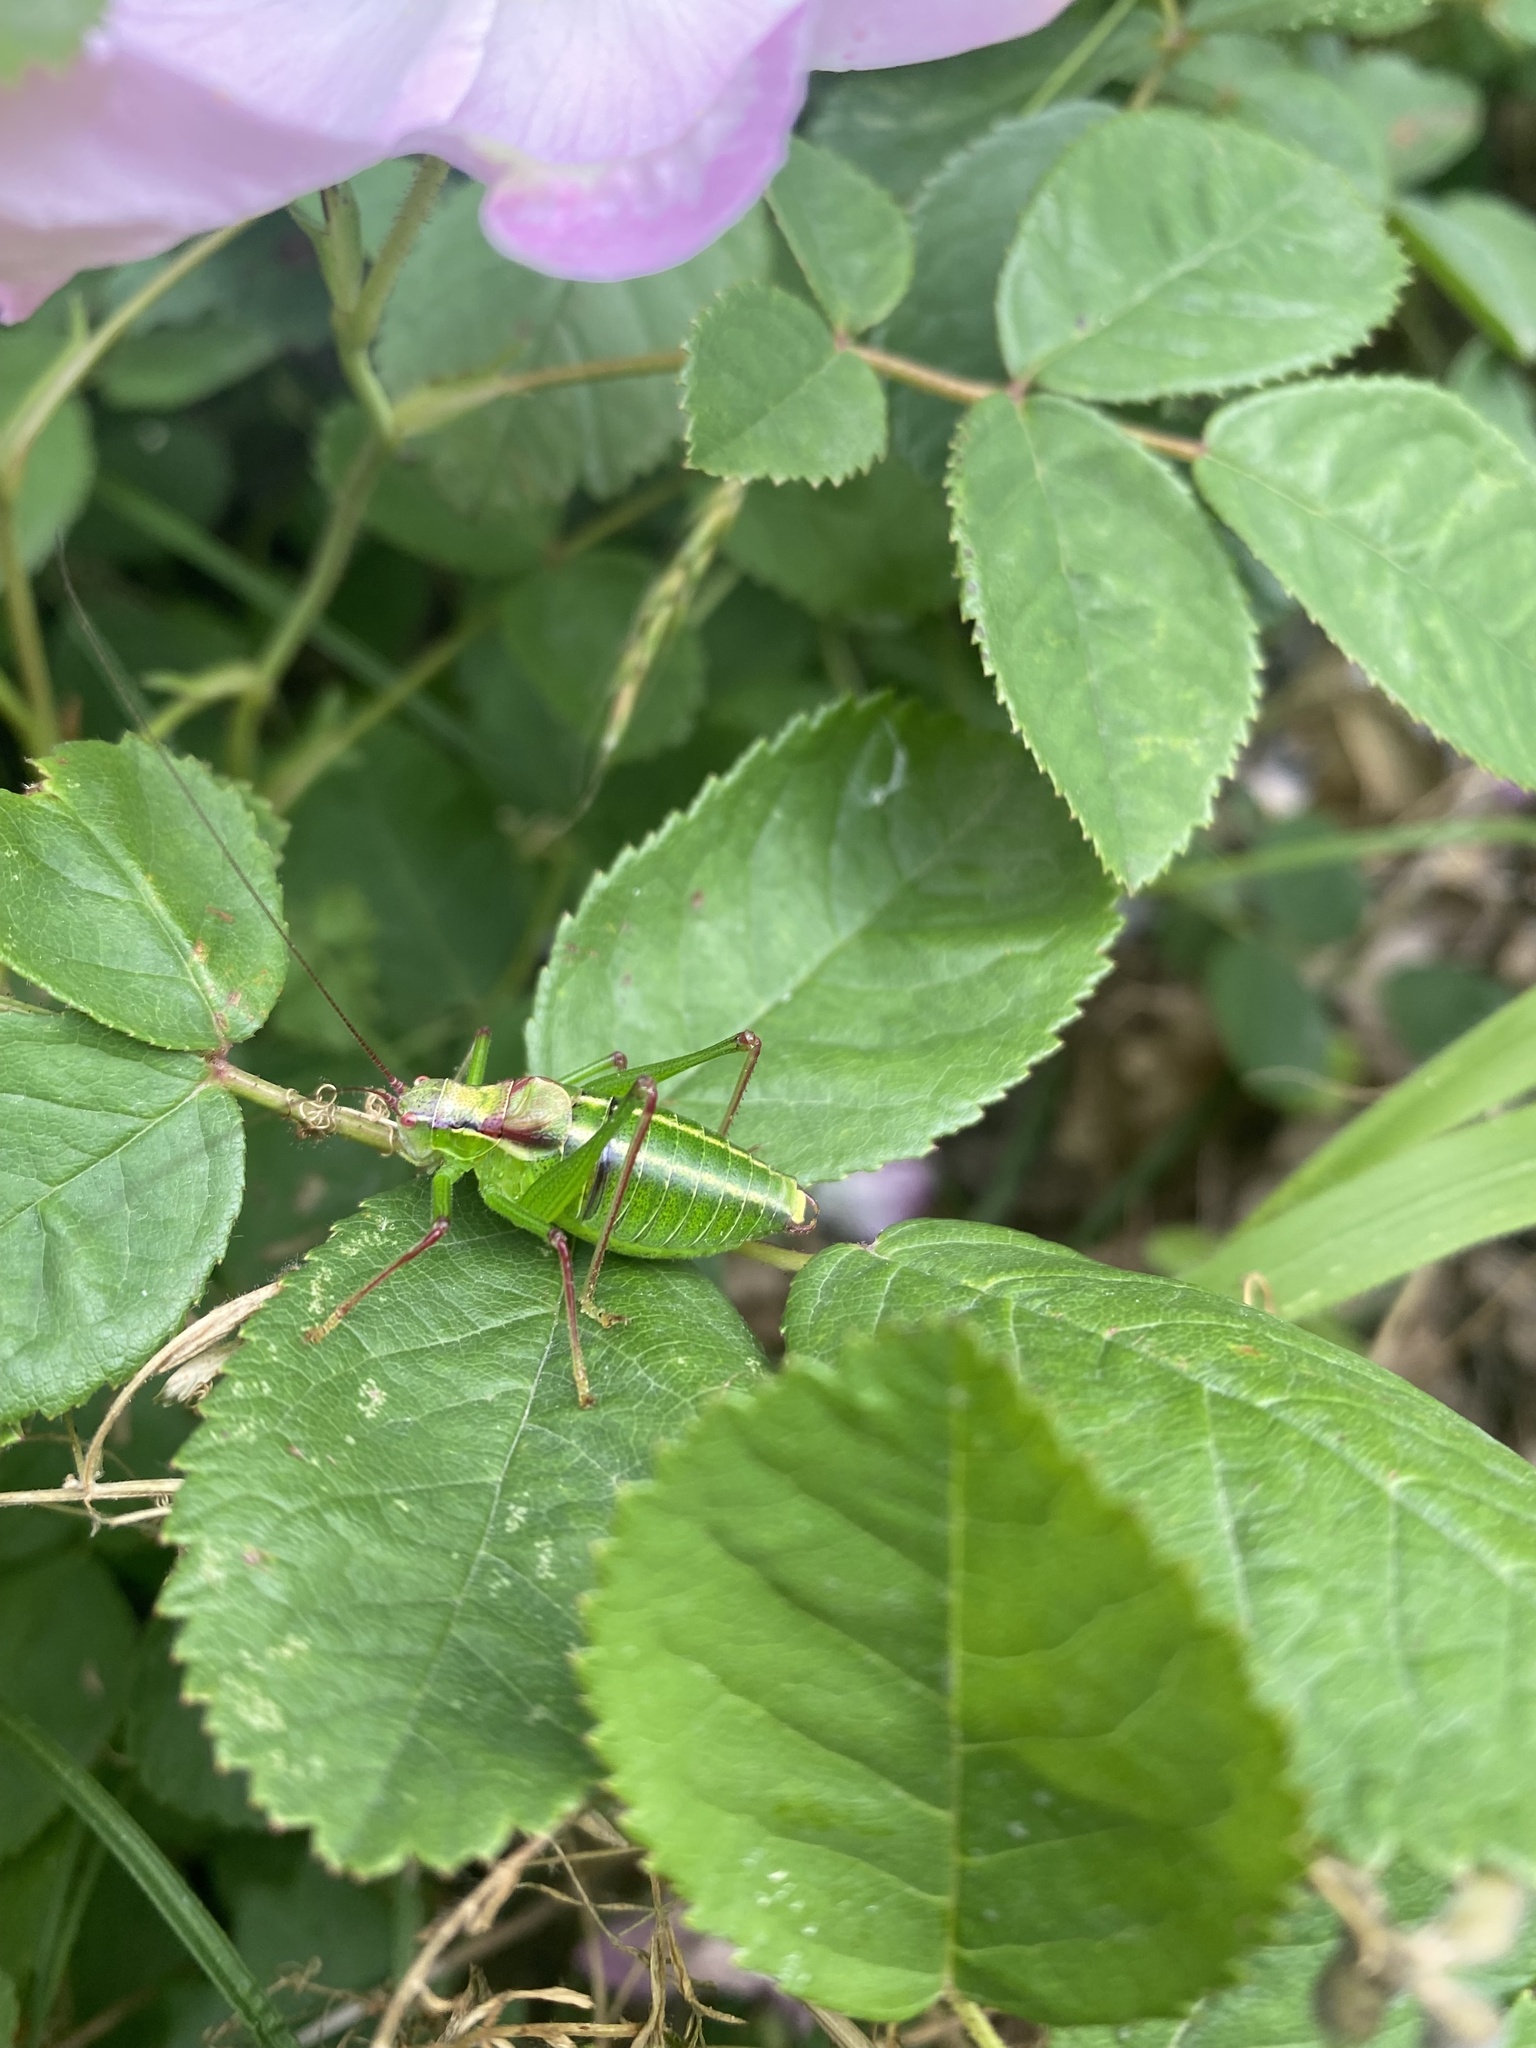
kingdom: Animalia
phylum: Arthropoda
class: Insecta
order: Orthoptera
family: Tettigoniidae
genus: Isophya
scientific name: Isophya gracilis
